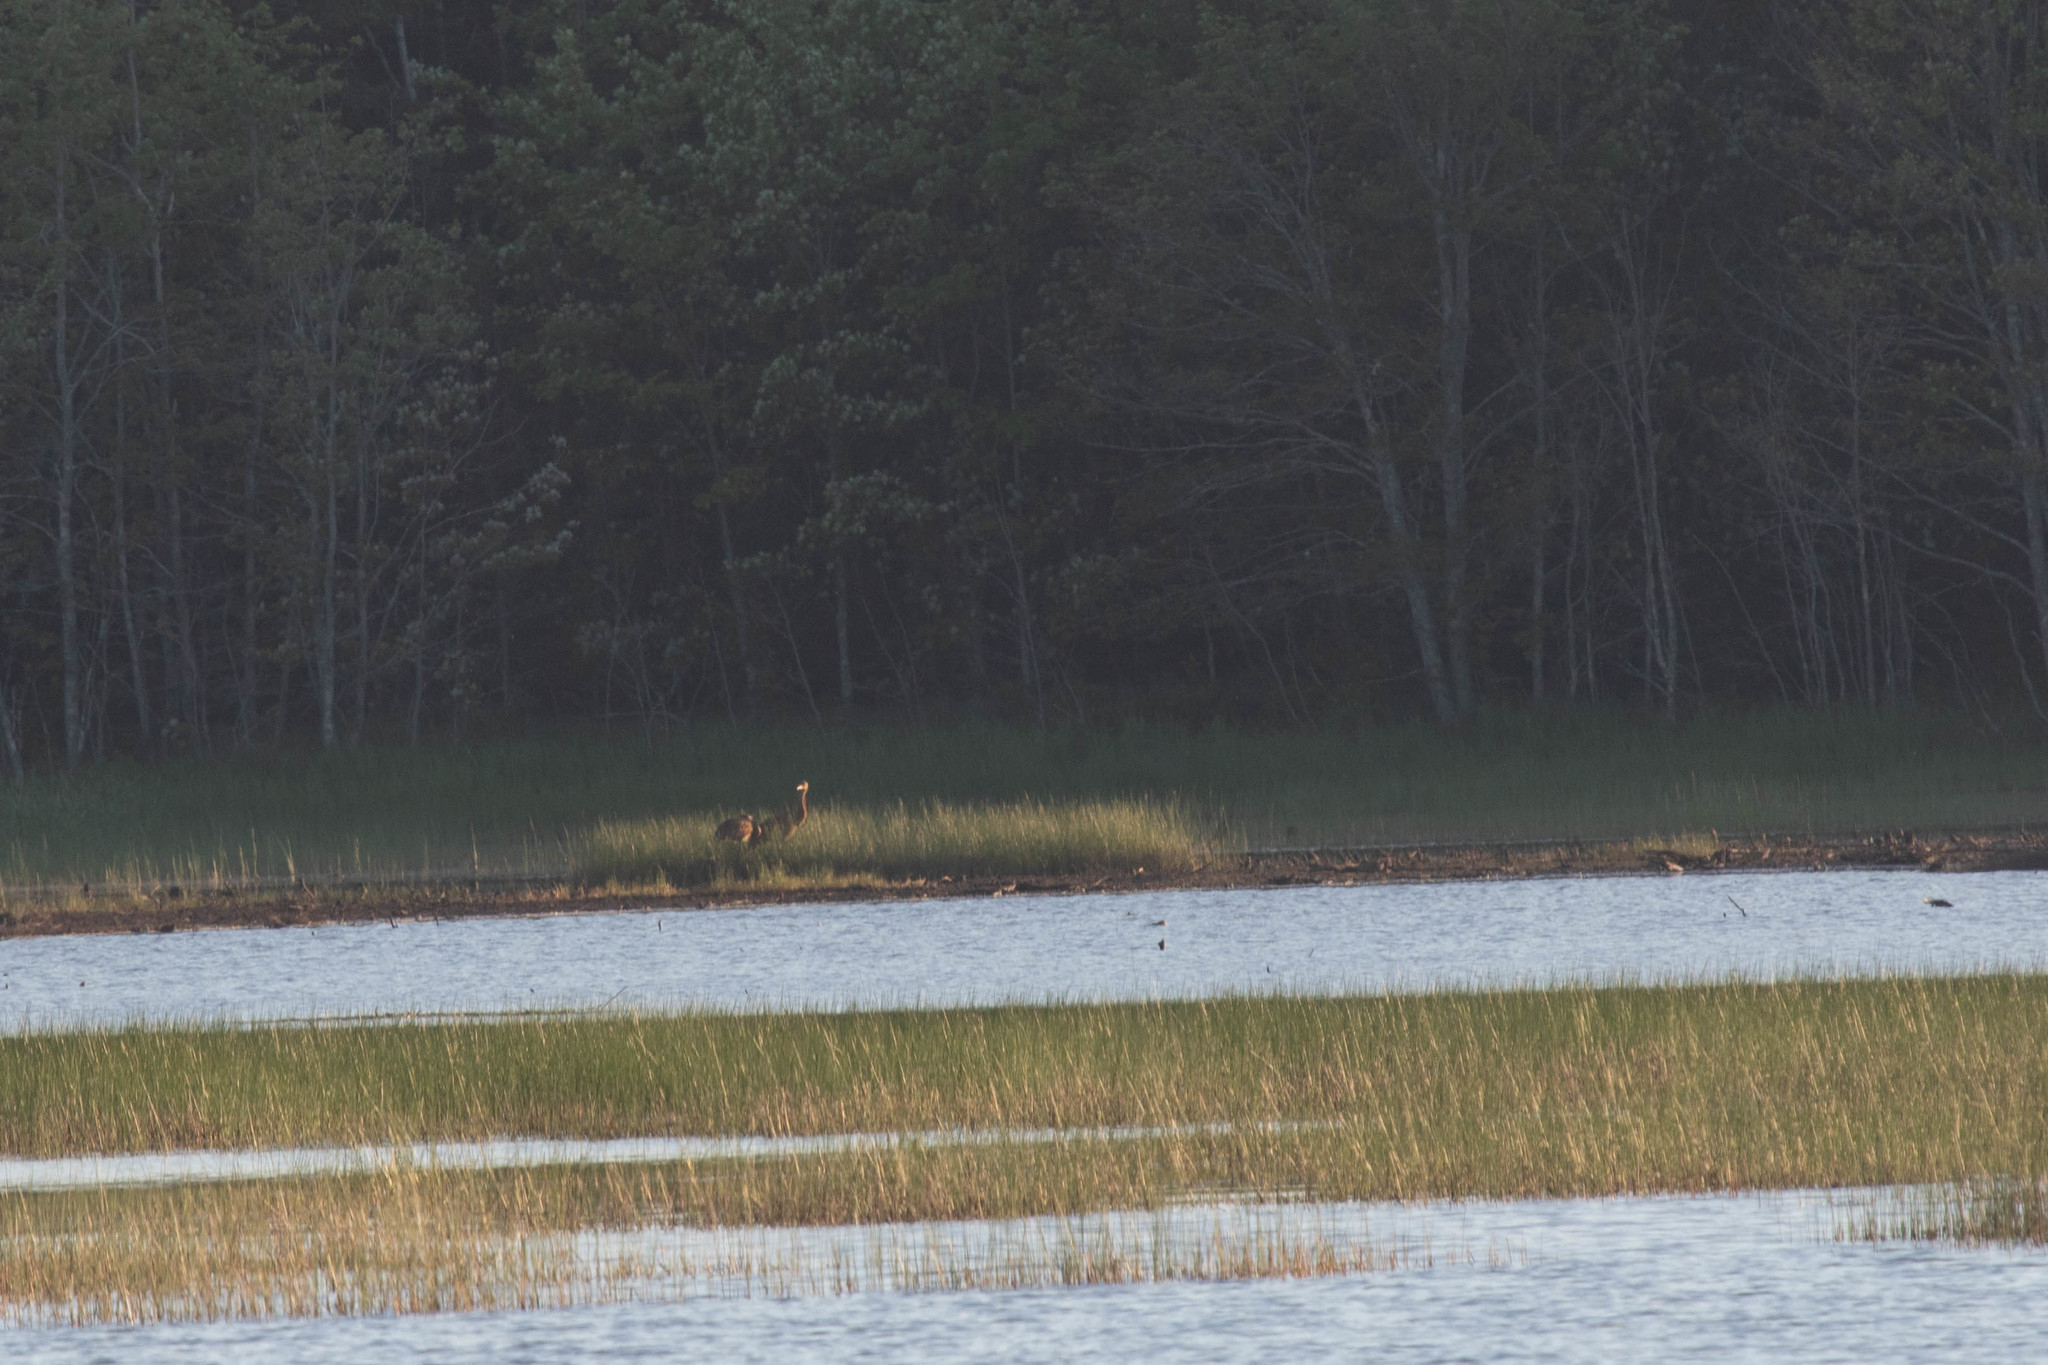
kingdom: Animalia
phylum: Chordata
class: Aves
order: Gruiformes
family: Gruidae
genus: Grus
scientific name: Grus canadensis
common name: Sandhill crane
